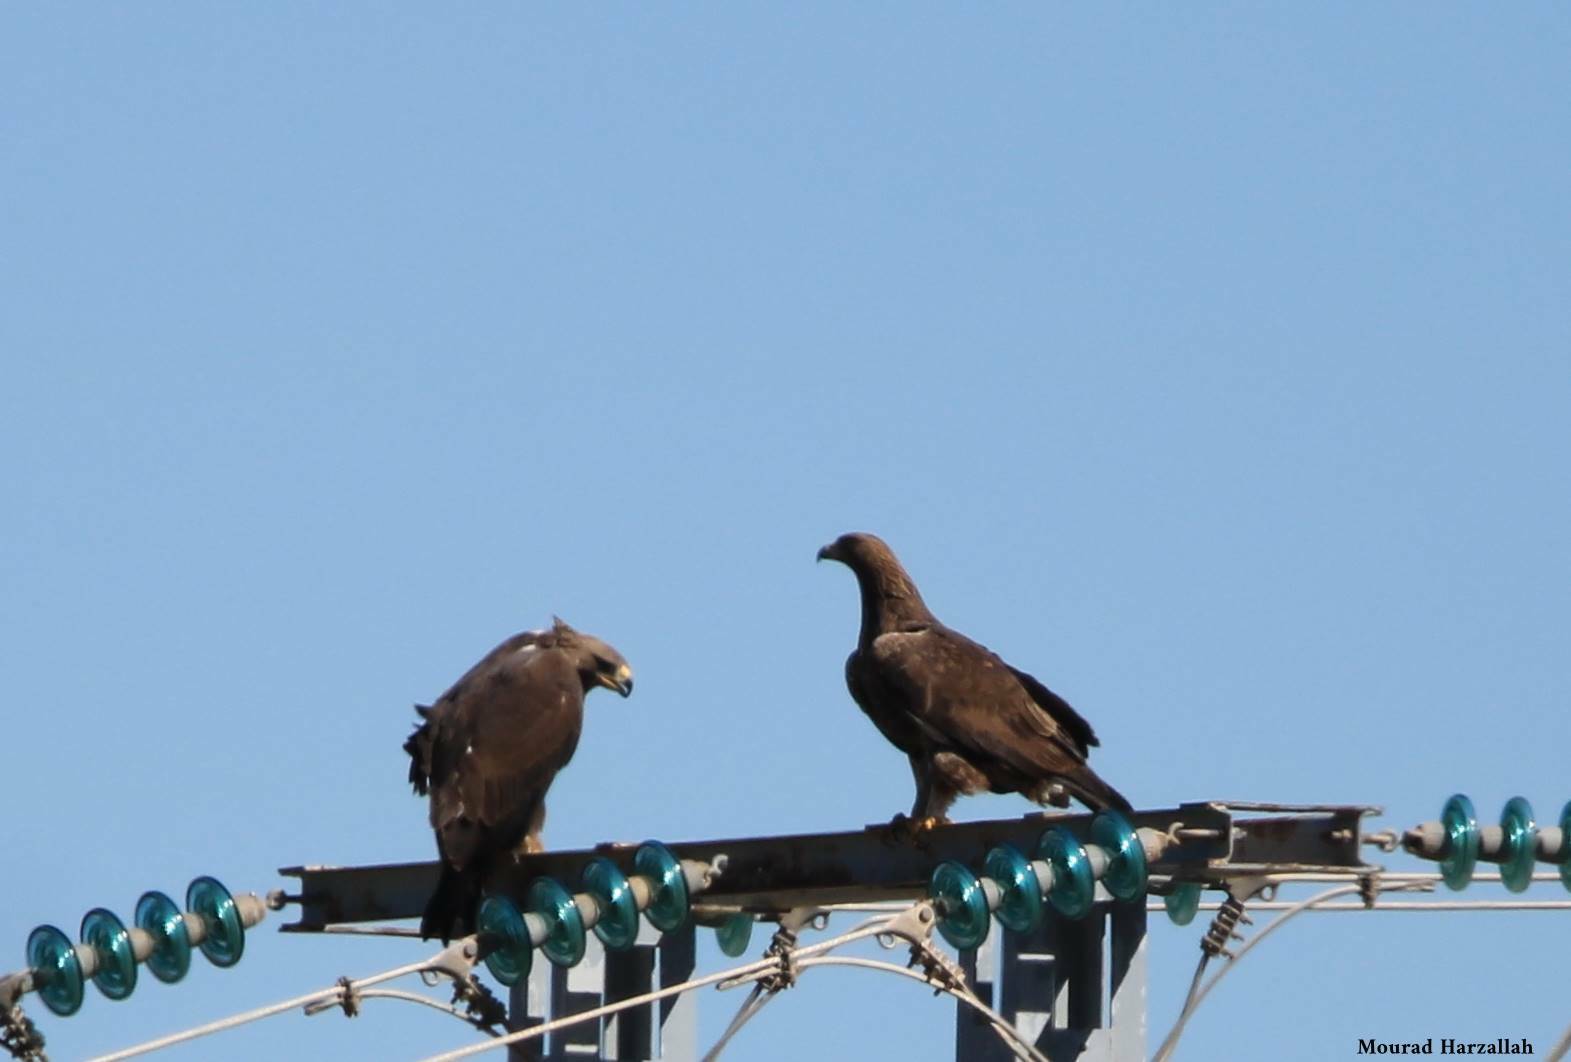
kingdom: Animalia
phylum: Chordata
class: Aves
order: Accipitriformes
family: Accipitridae
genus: Aquila
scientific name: Aquila chrysaetos
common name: Golden eagle
